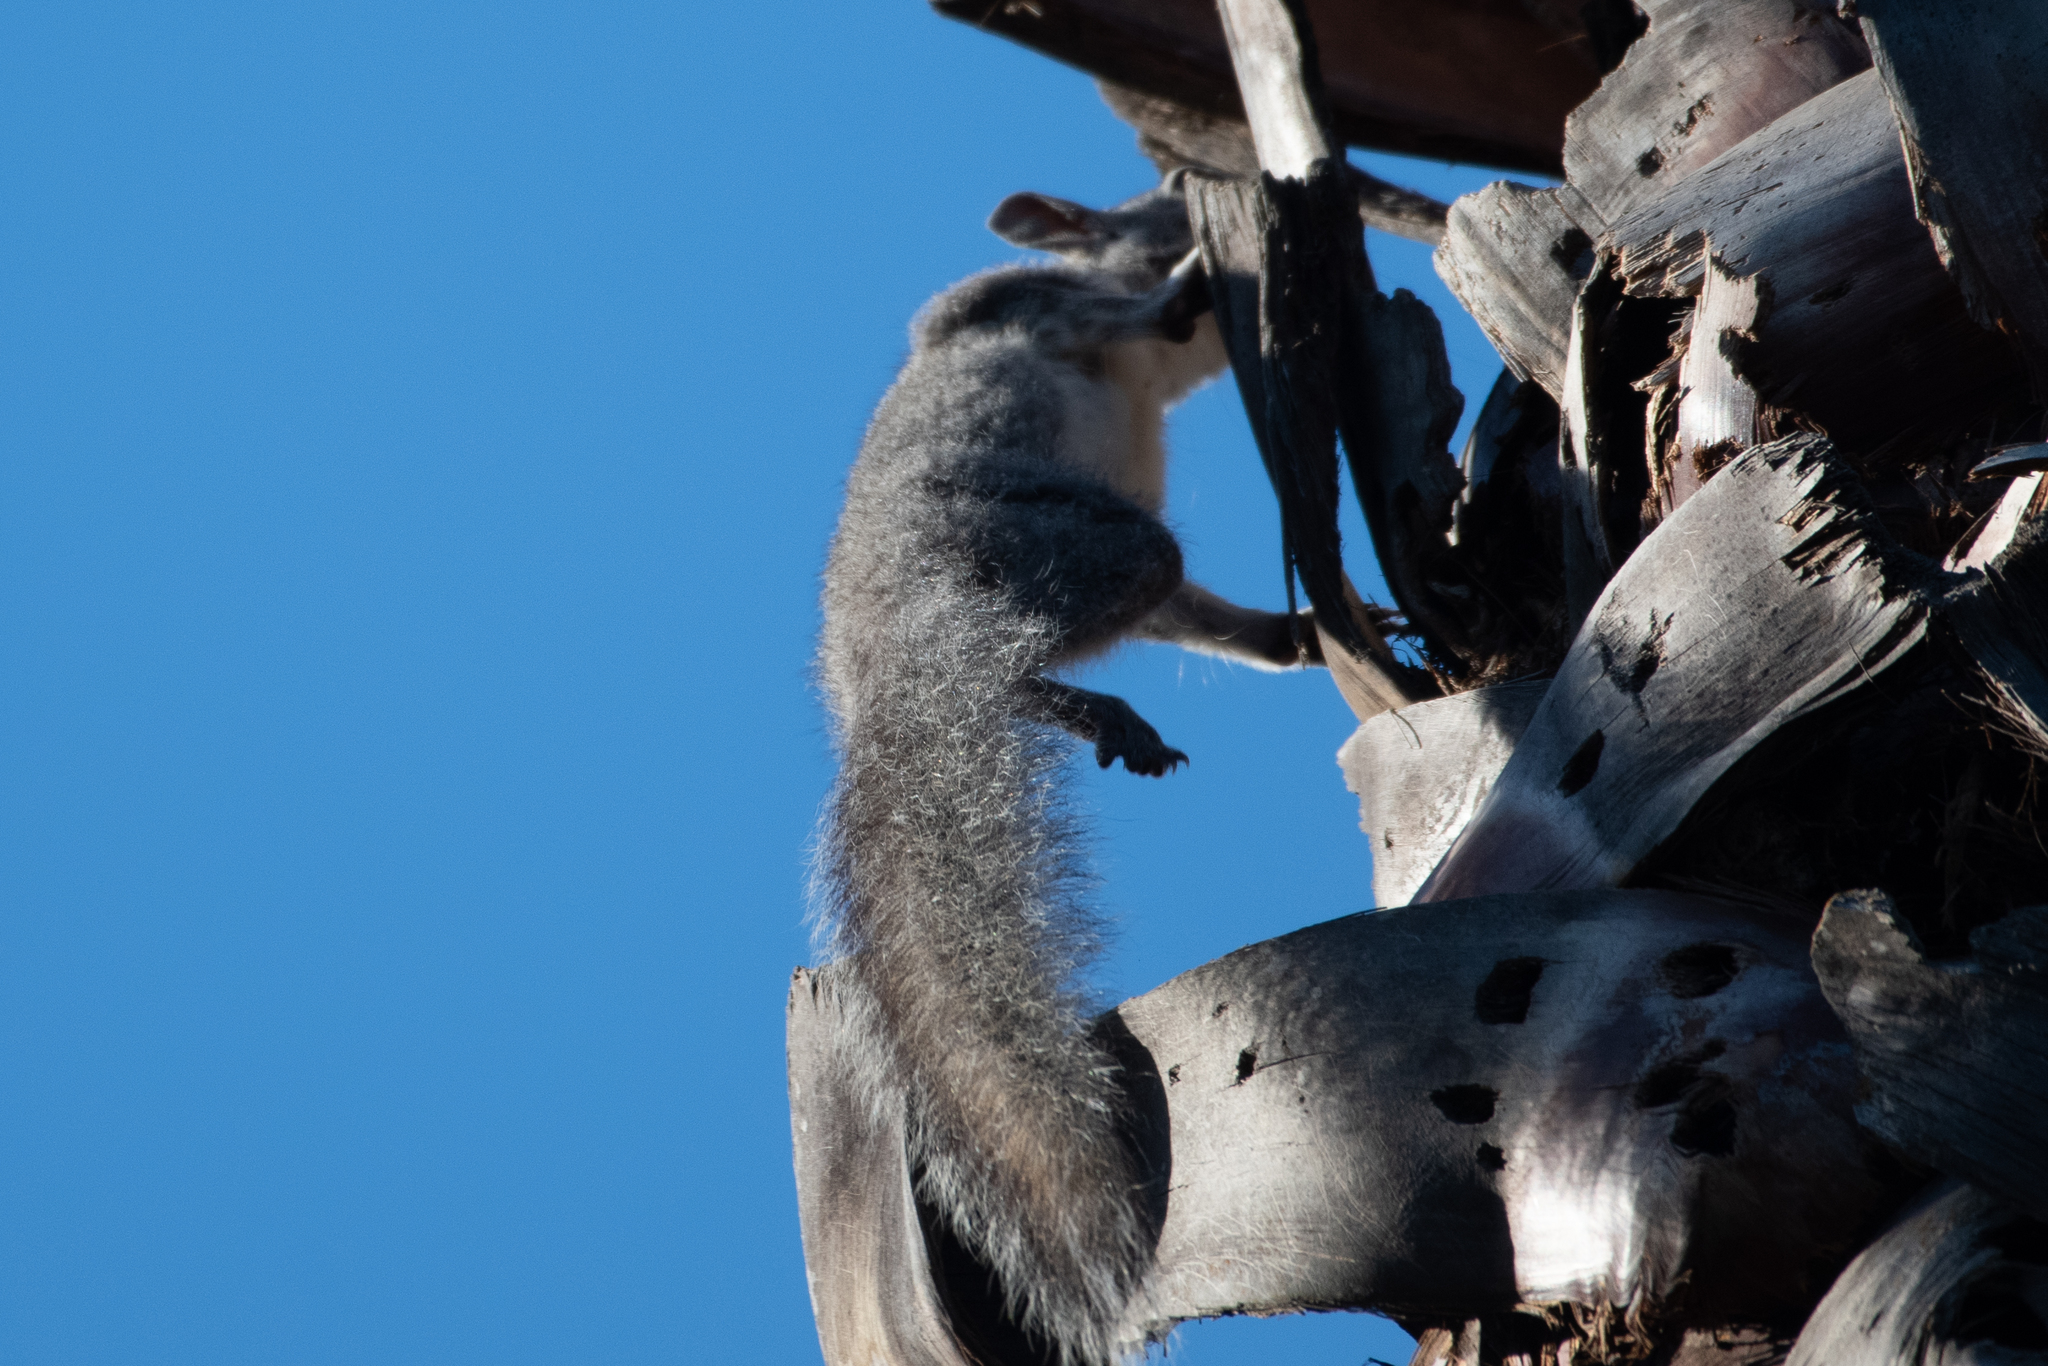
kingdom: Animalia
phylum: Chordata
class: Mammalia
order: Rodentia
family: Sciuridae
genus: Sciurus
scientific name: Sciurus griseus
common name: Western gray squirrel
